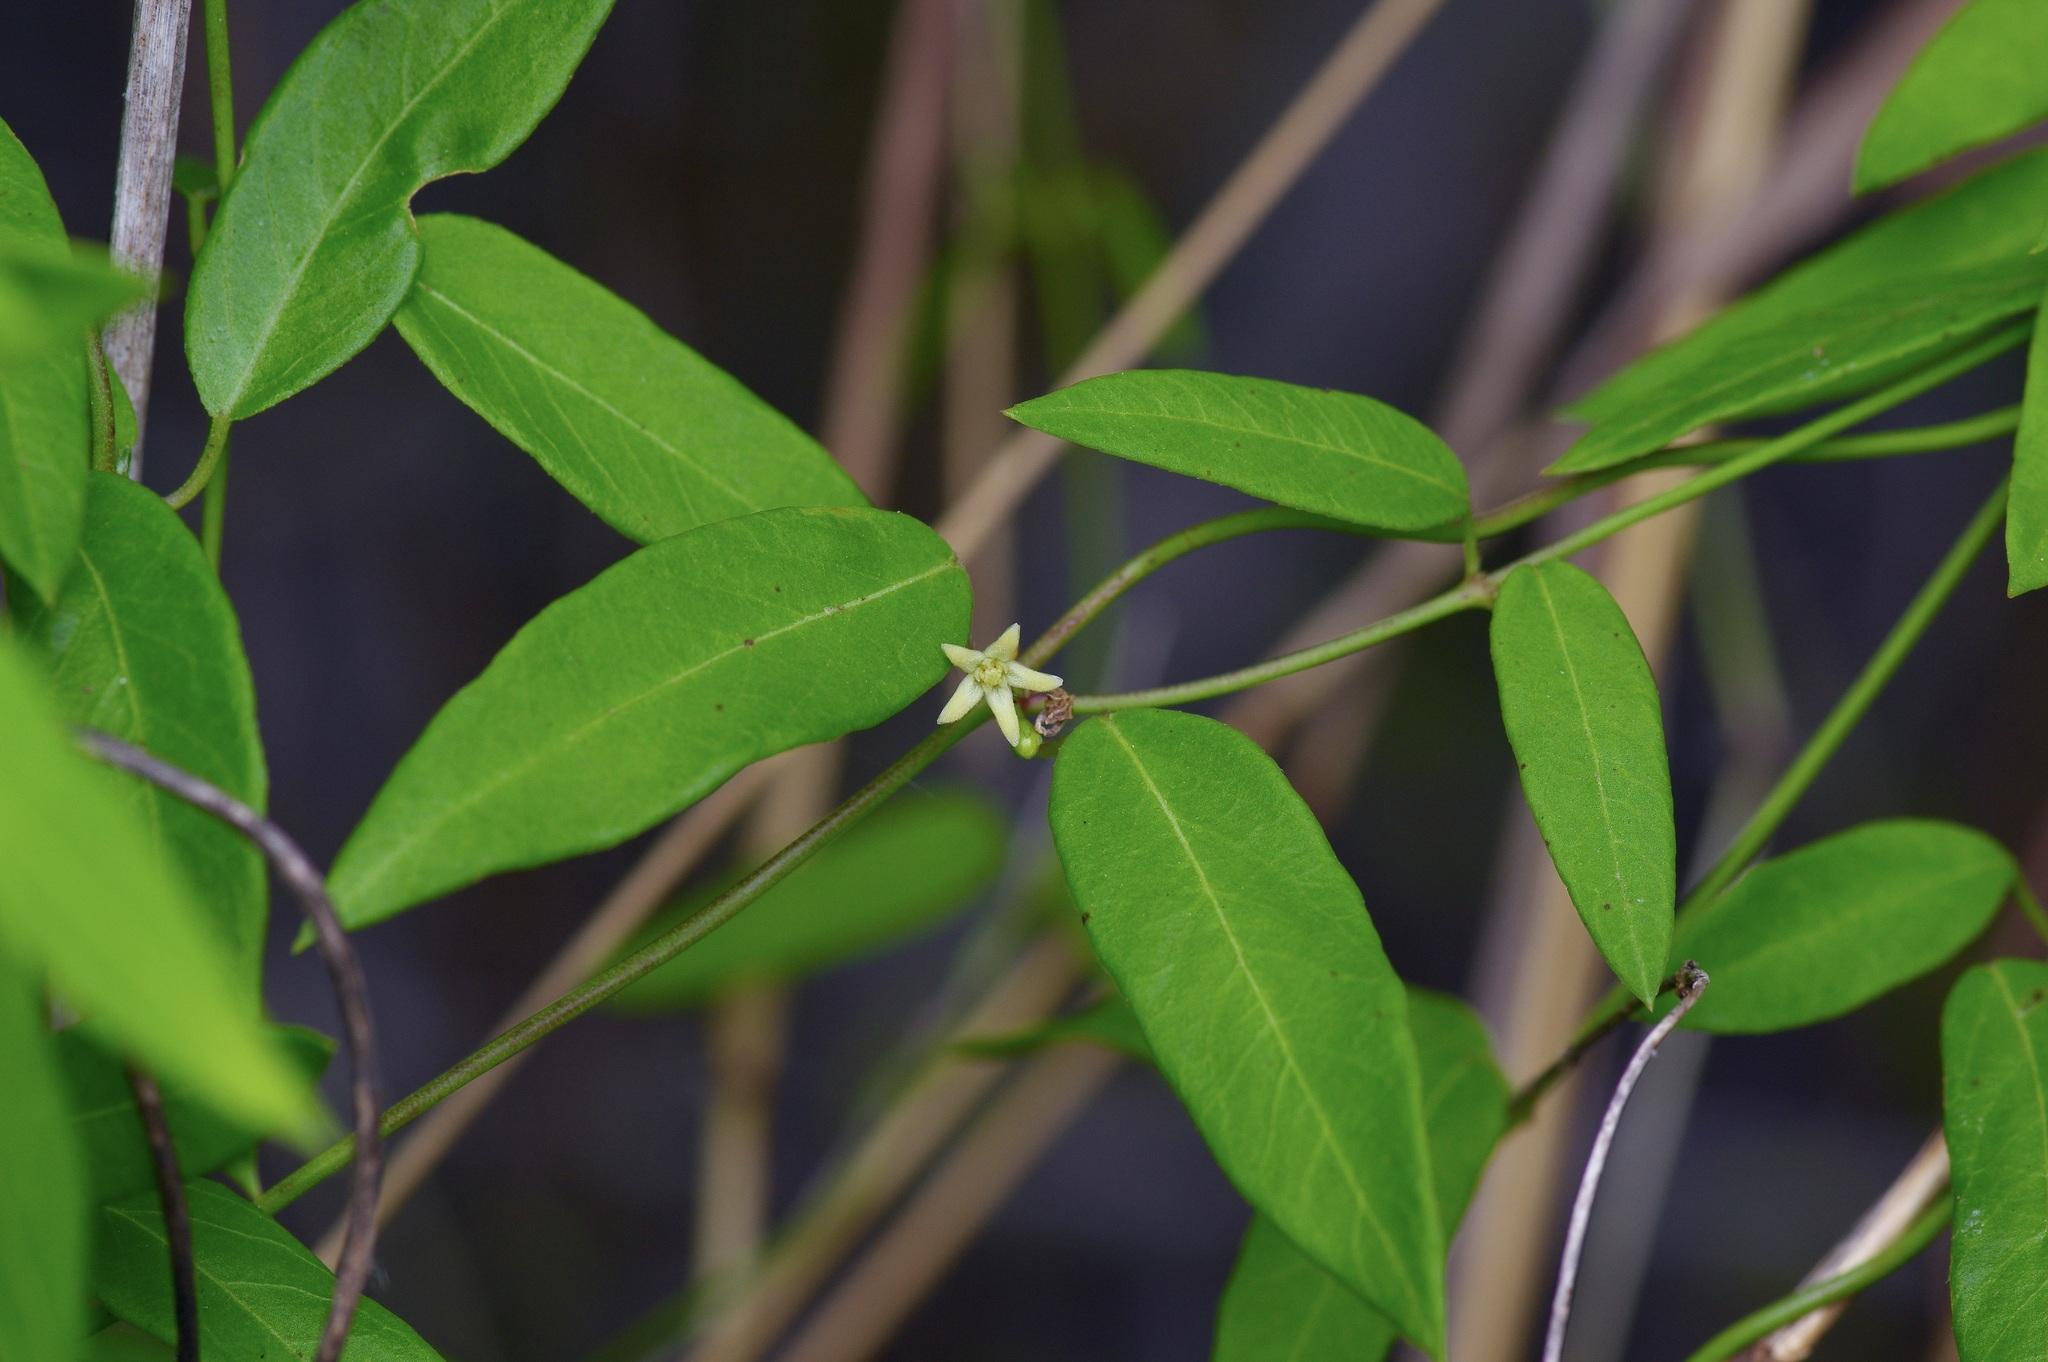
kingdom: Plantae
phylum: Tracheophyta
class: Magnoliopsida
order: Gentianales
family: Apocynaceae
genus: Metastelma
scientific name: Metastelma palmeri
